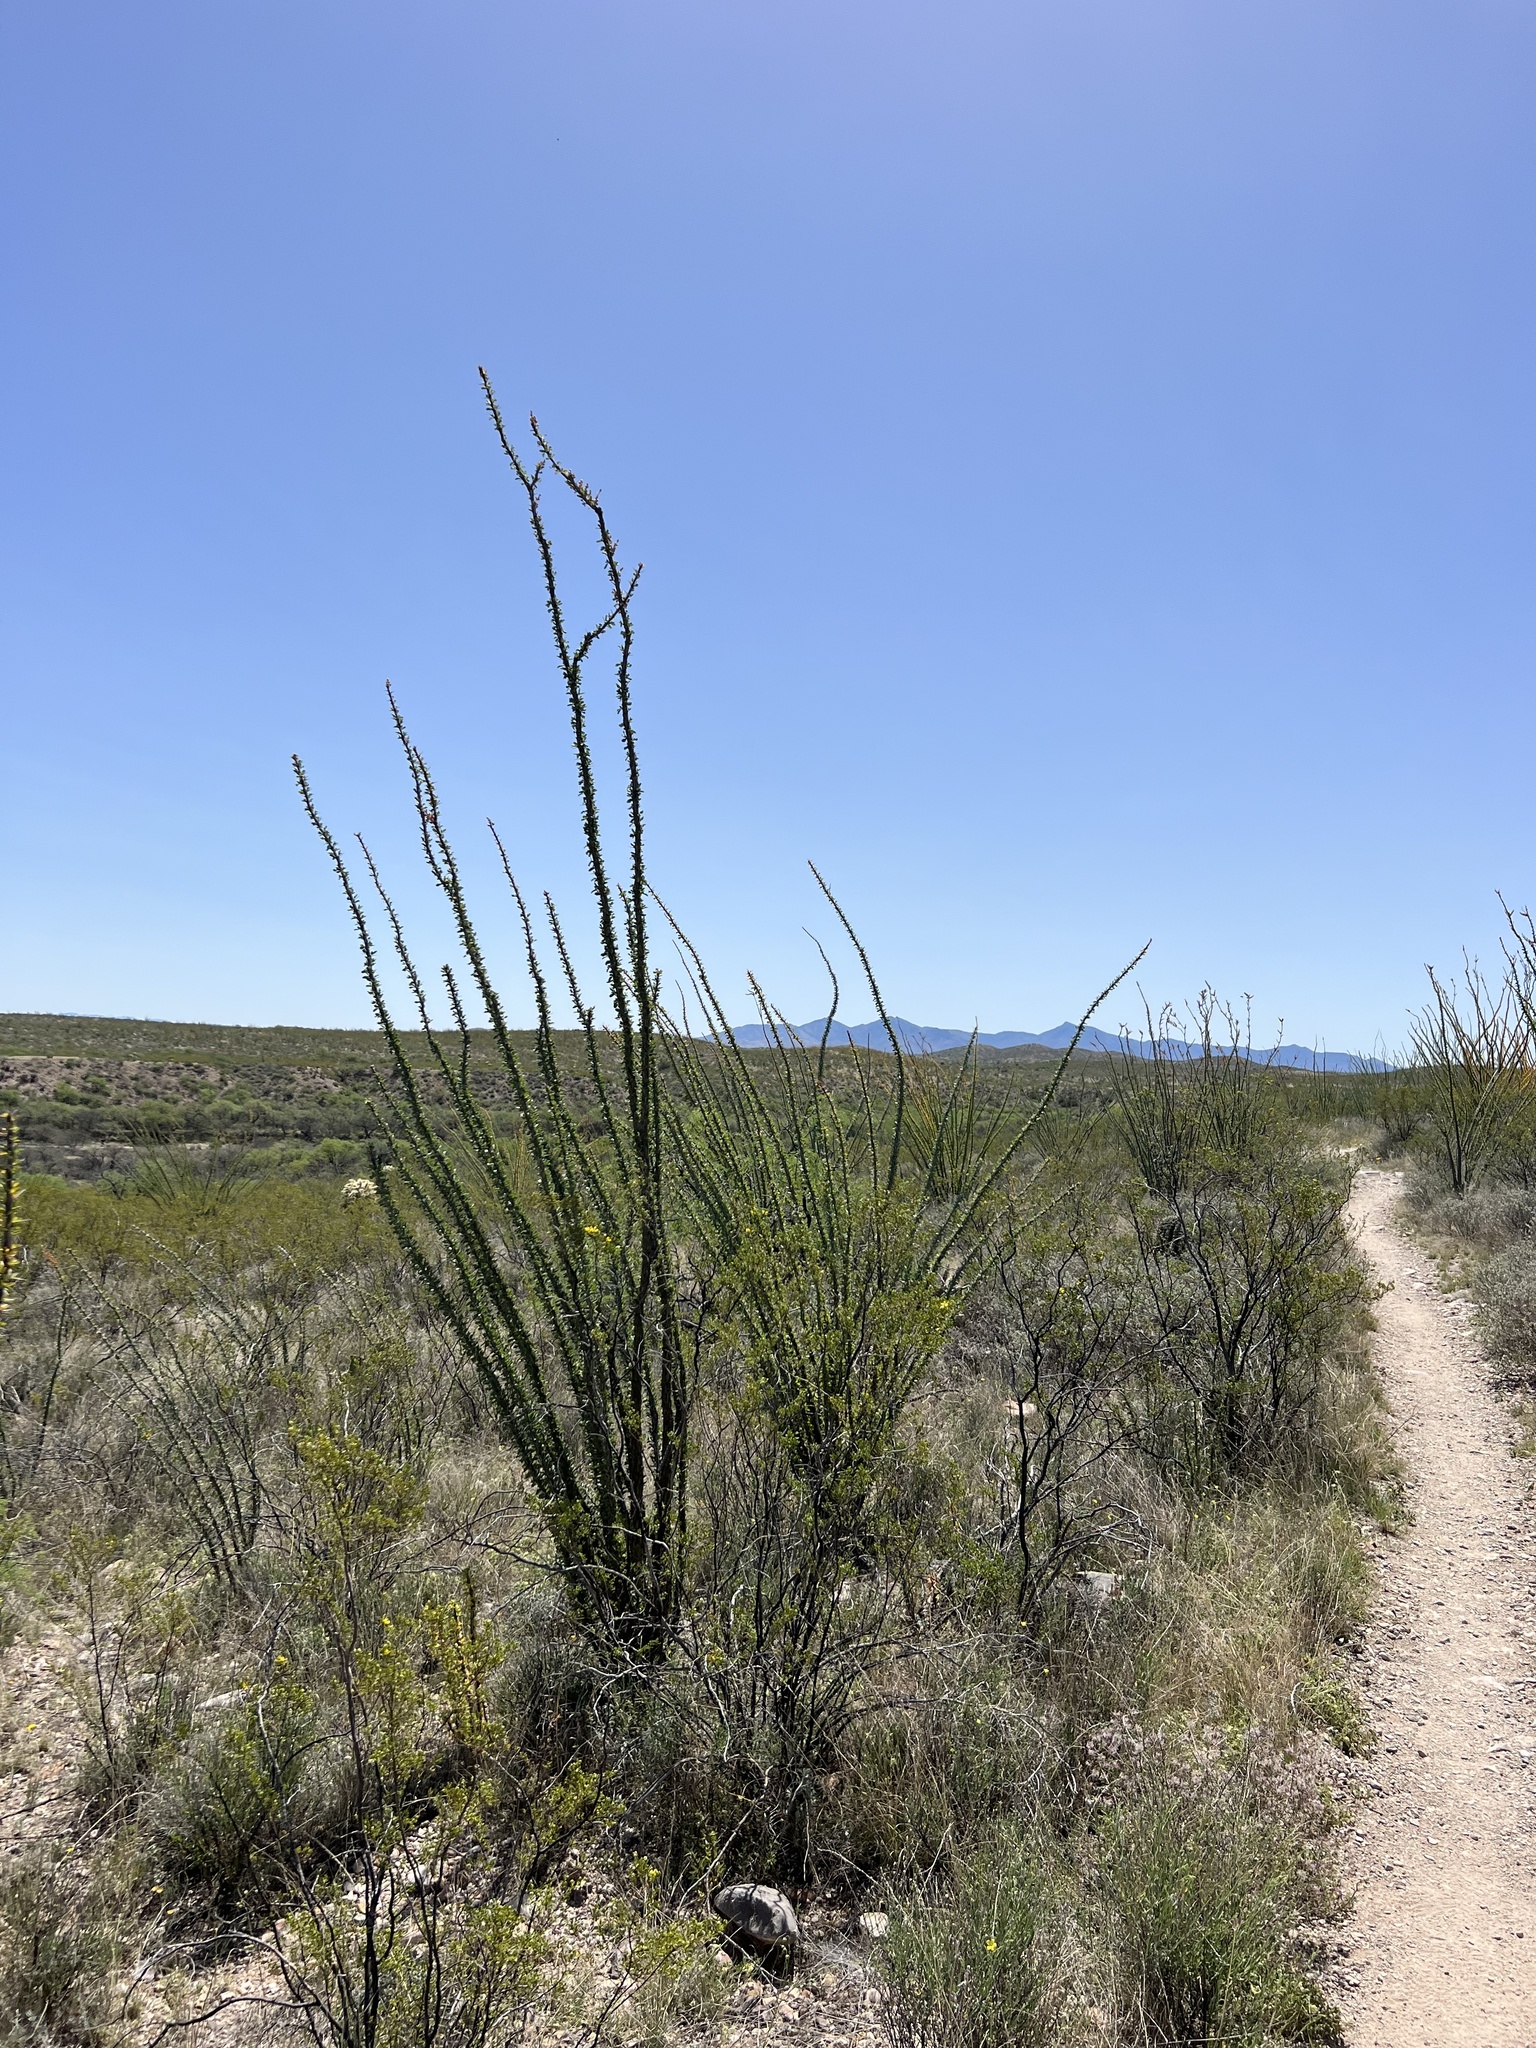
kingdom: Plantae
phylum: Tracheophyta
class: Magnoliopsida
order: Ericales
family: Fouquieriaceae
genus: Fouquieria
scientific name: Fouquieria splendens
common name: Vine-cactus
